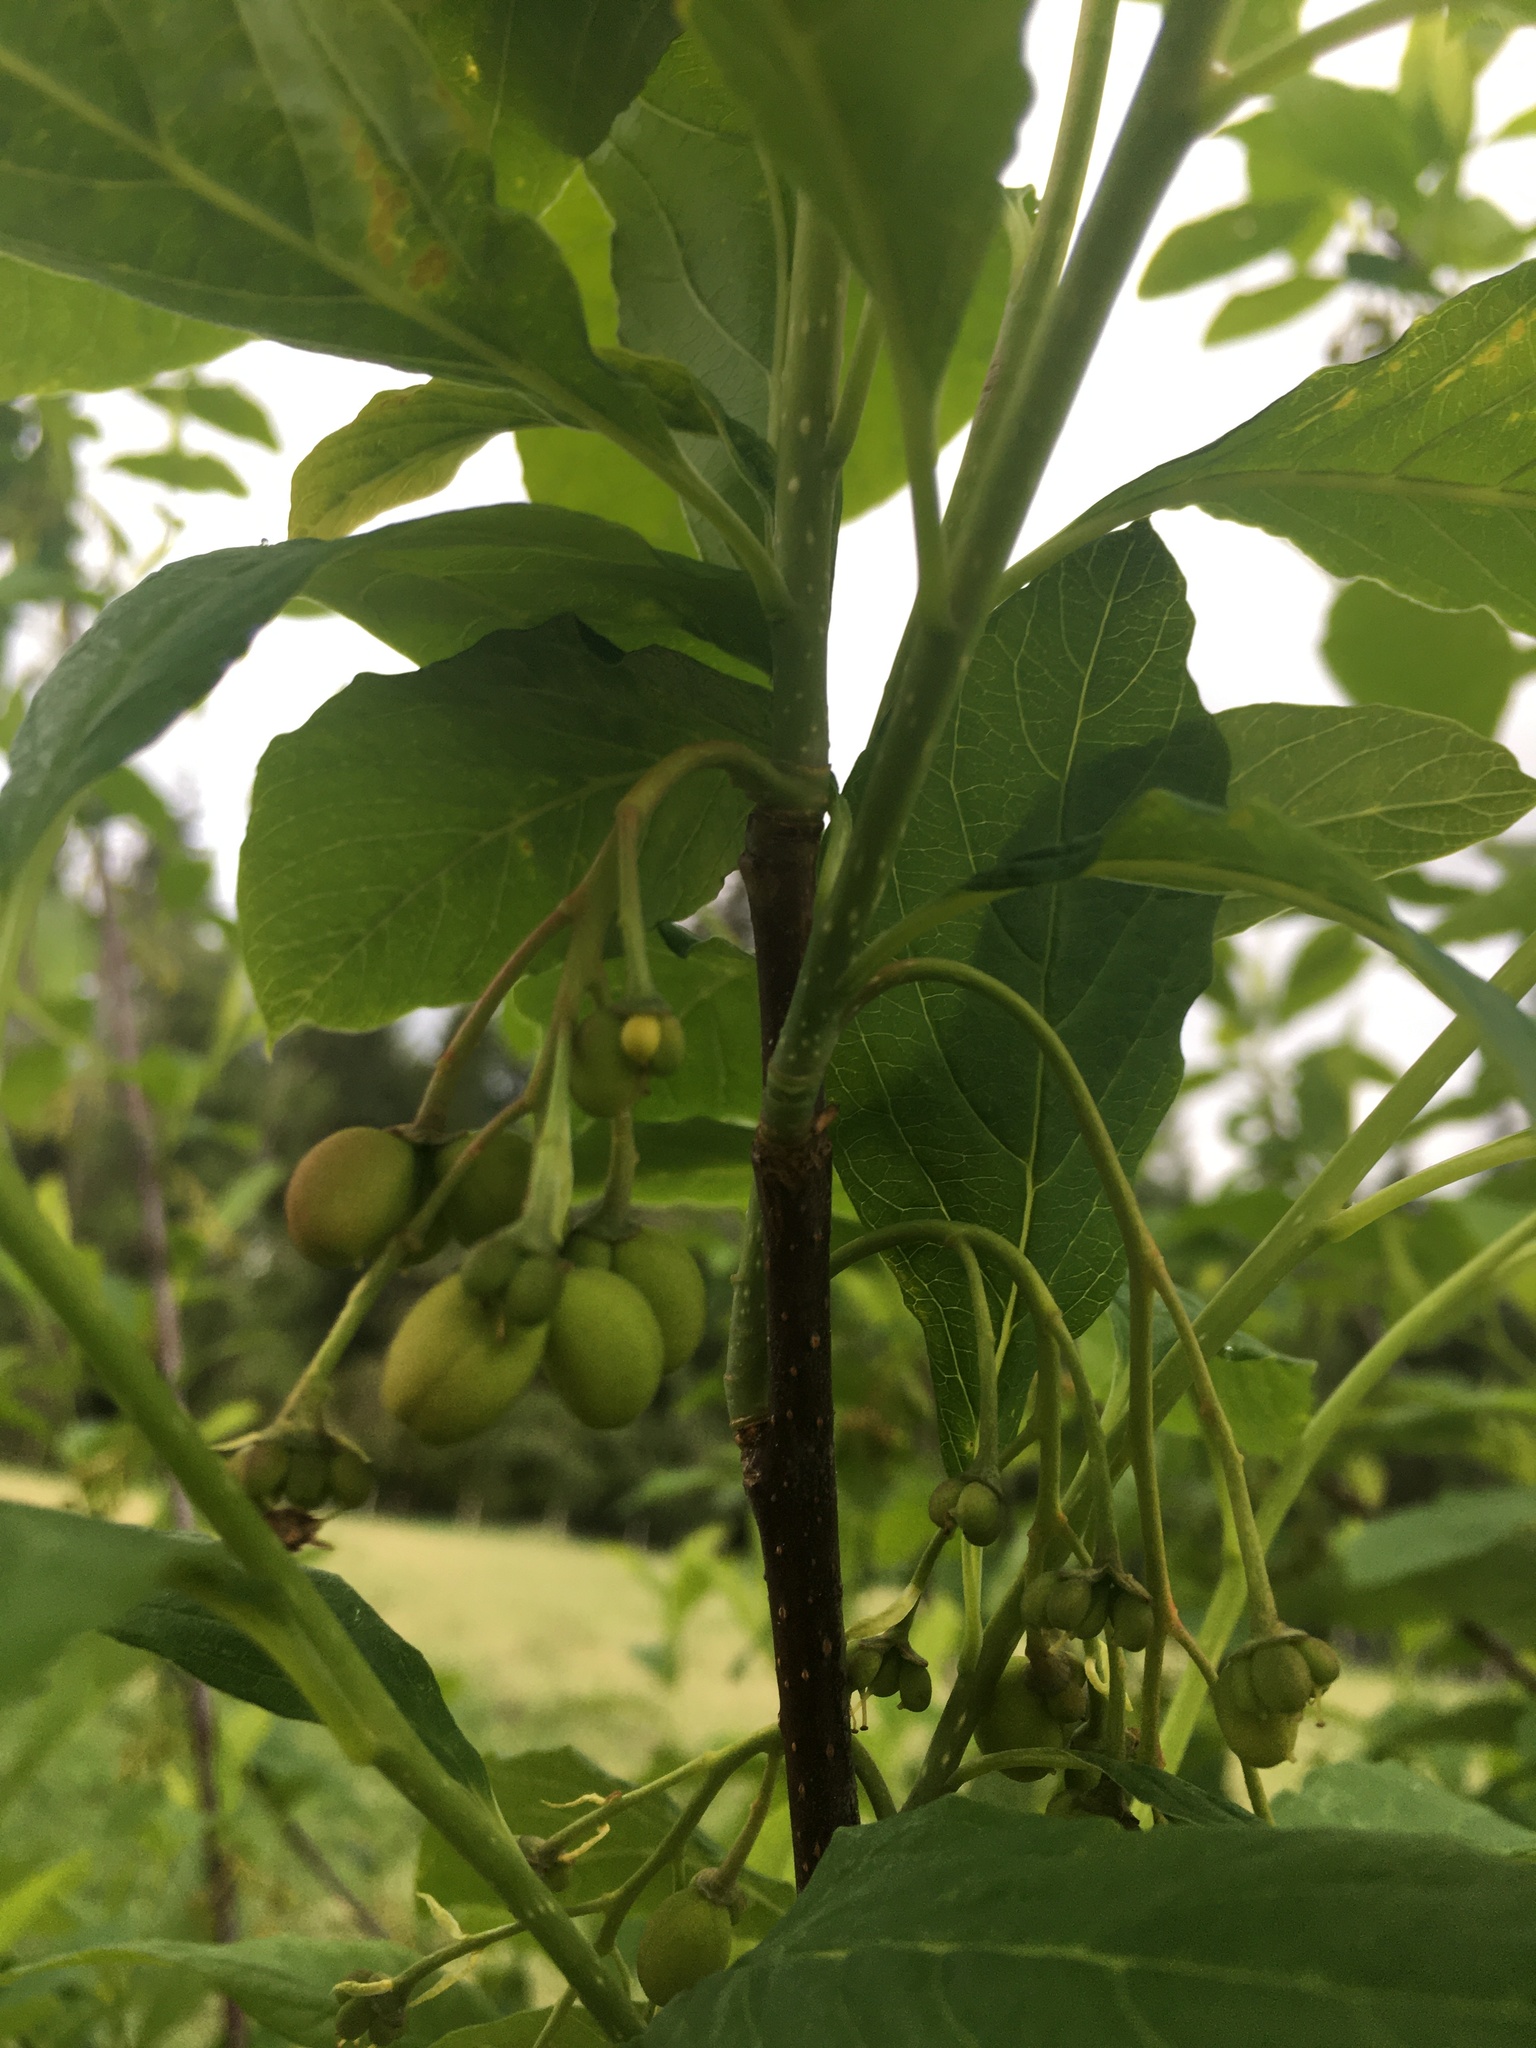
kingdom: Plantae
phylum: Tracheophyta
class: Magnoliopsida
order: Rosales
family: Rosaceae
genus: Oemleria
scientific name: Oemleria cerasiformis
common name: Osoberry
